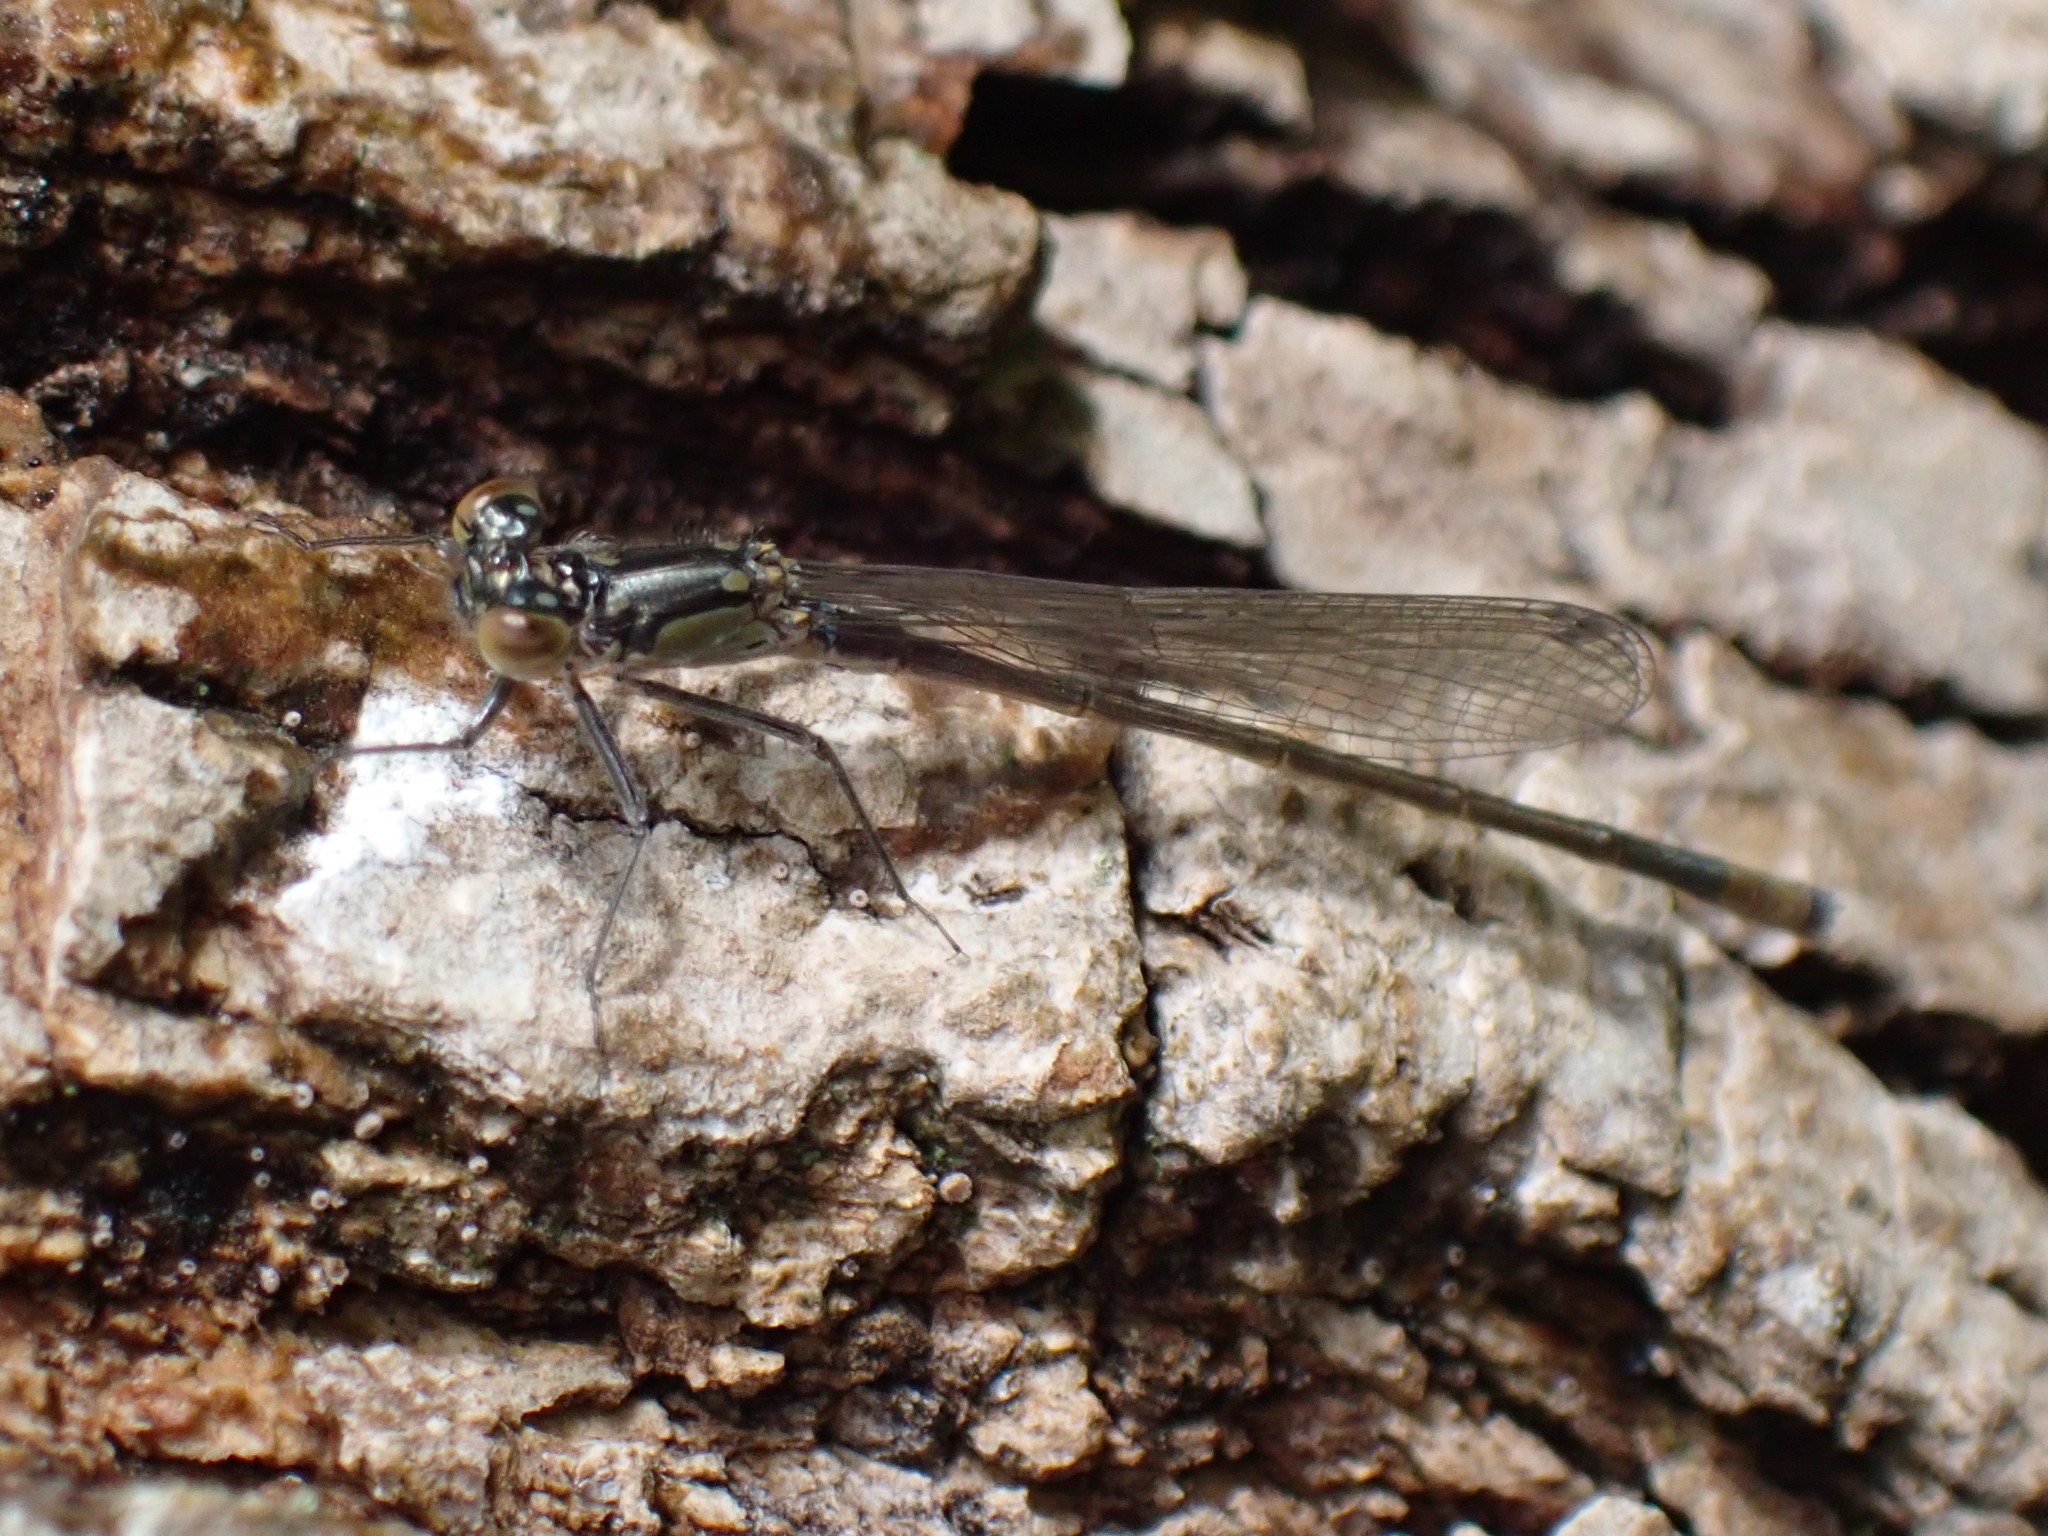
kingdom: Animalia
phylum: Arthropoda
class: Insecta
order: Odonata
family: Coenagrionidae
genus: Ischnura
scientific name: Ischnura cervula
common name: Pacific forktail
